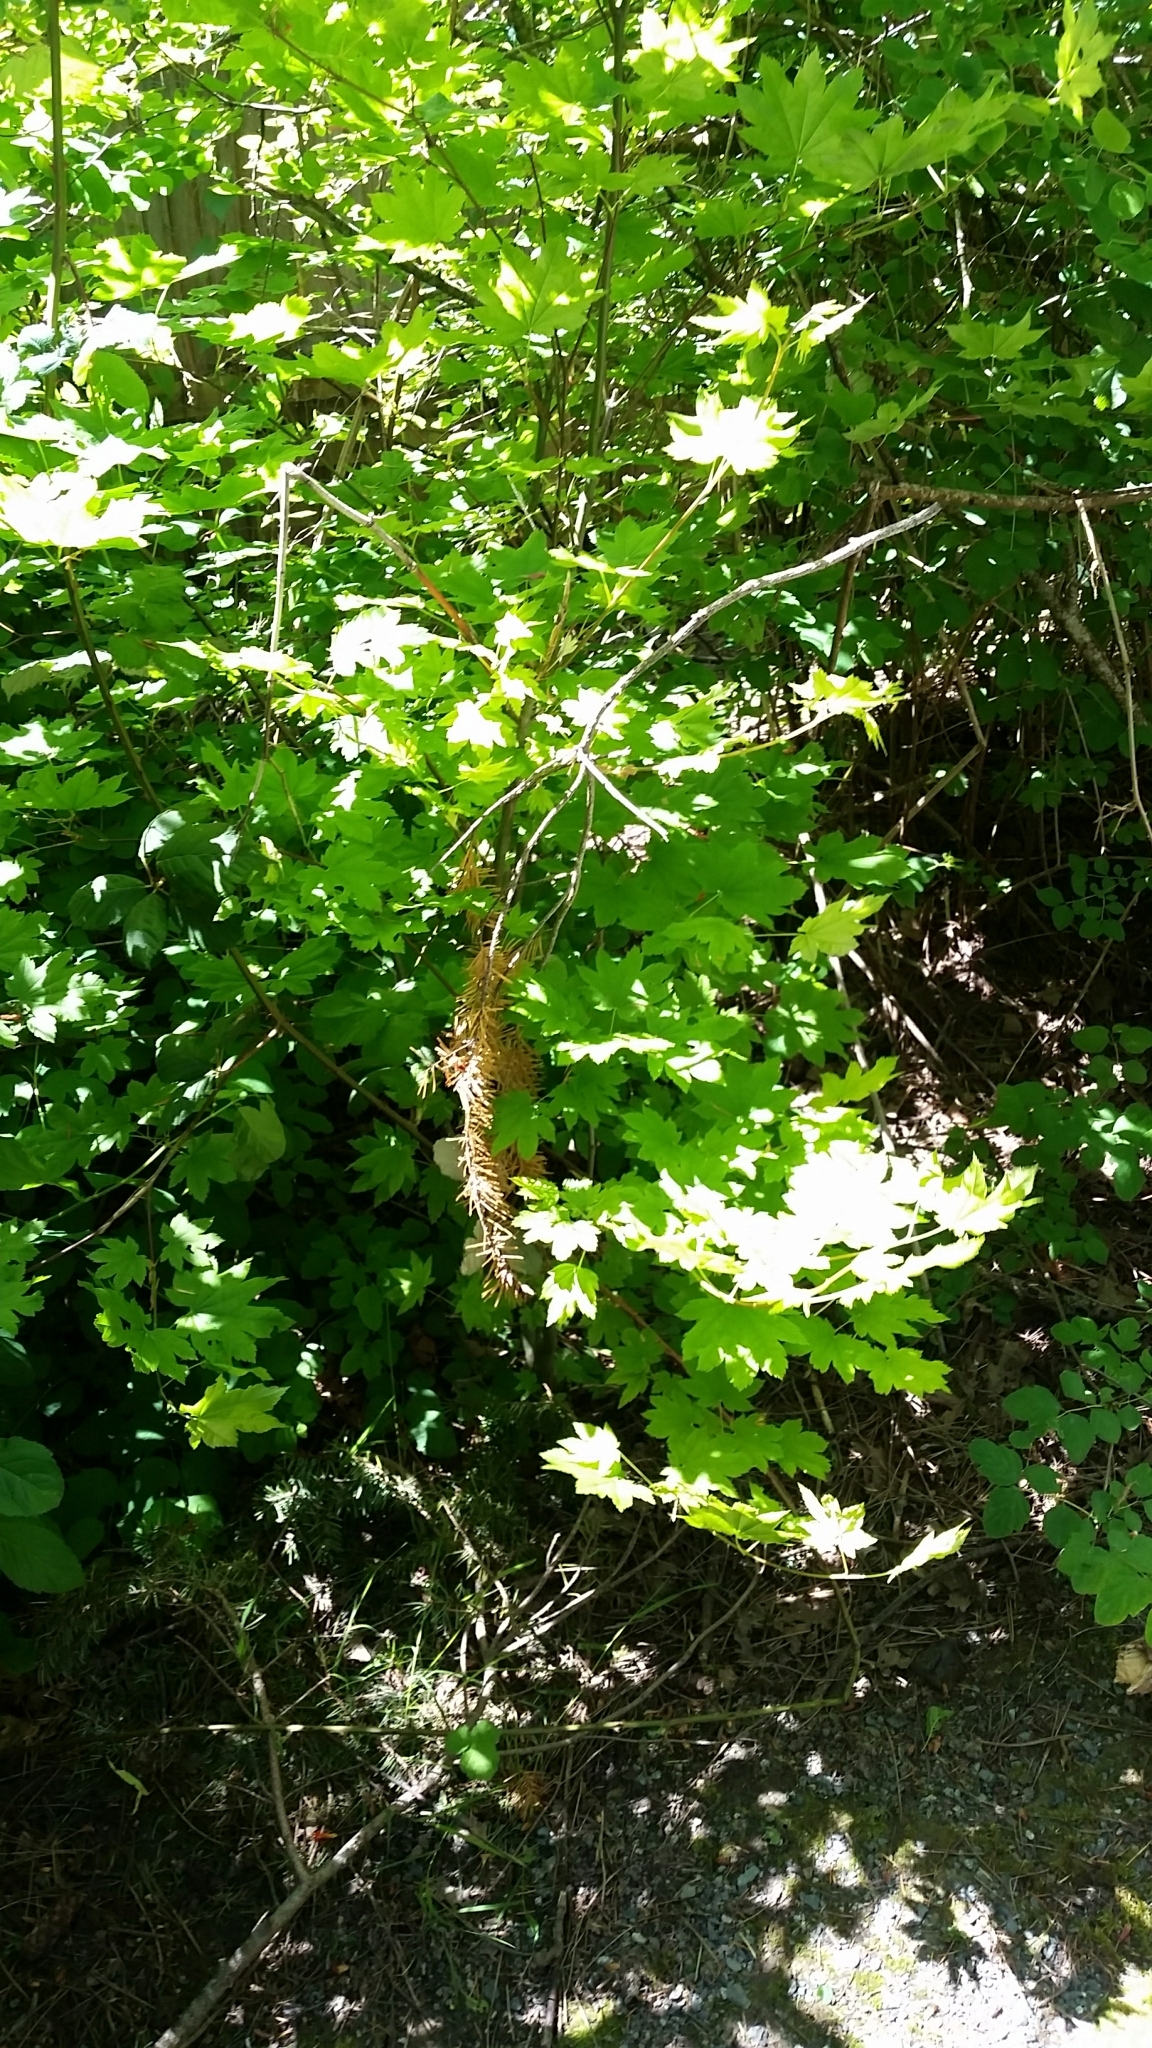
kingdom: Plantae
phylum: Tracheophyta
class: Magnoliopsida
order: Sapindales
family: Sapindaceae
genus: Acer
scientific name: Acer circinatum
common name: Vine maple
